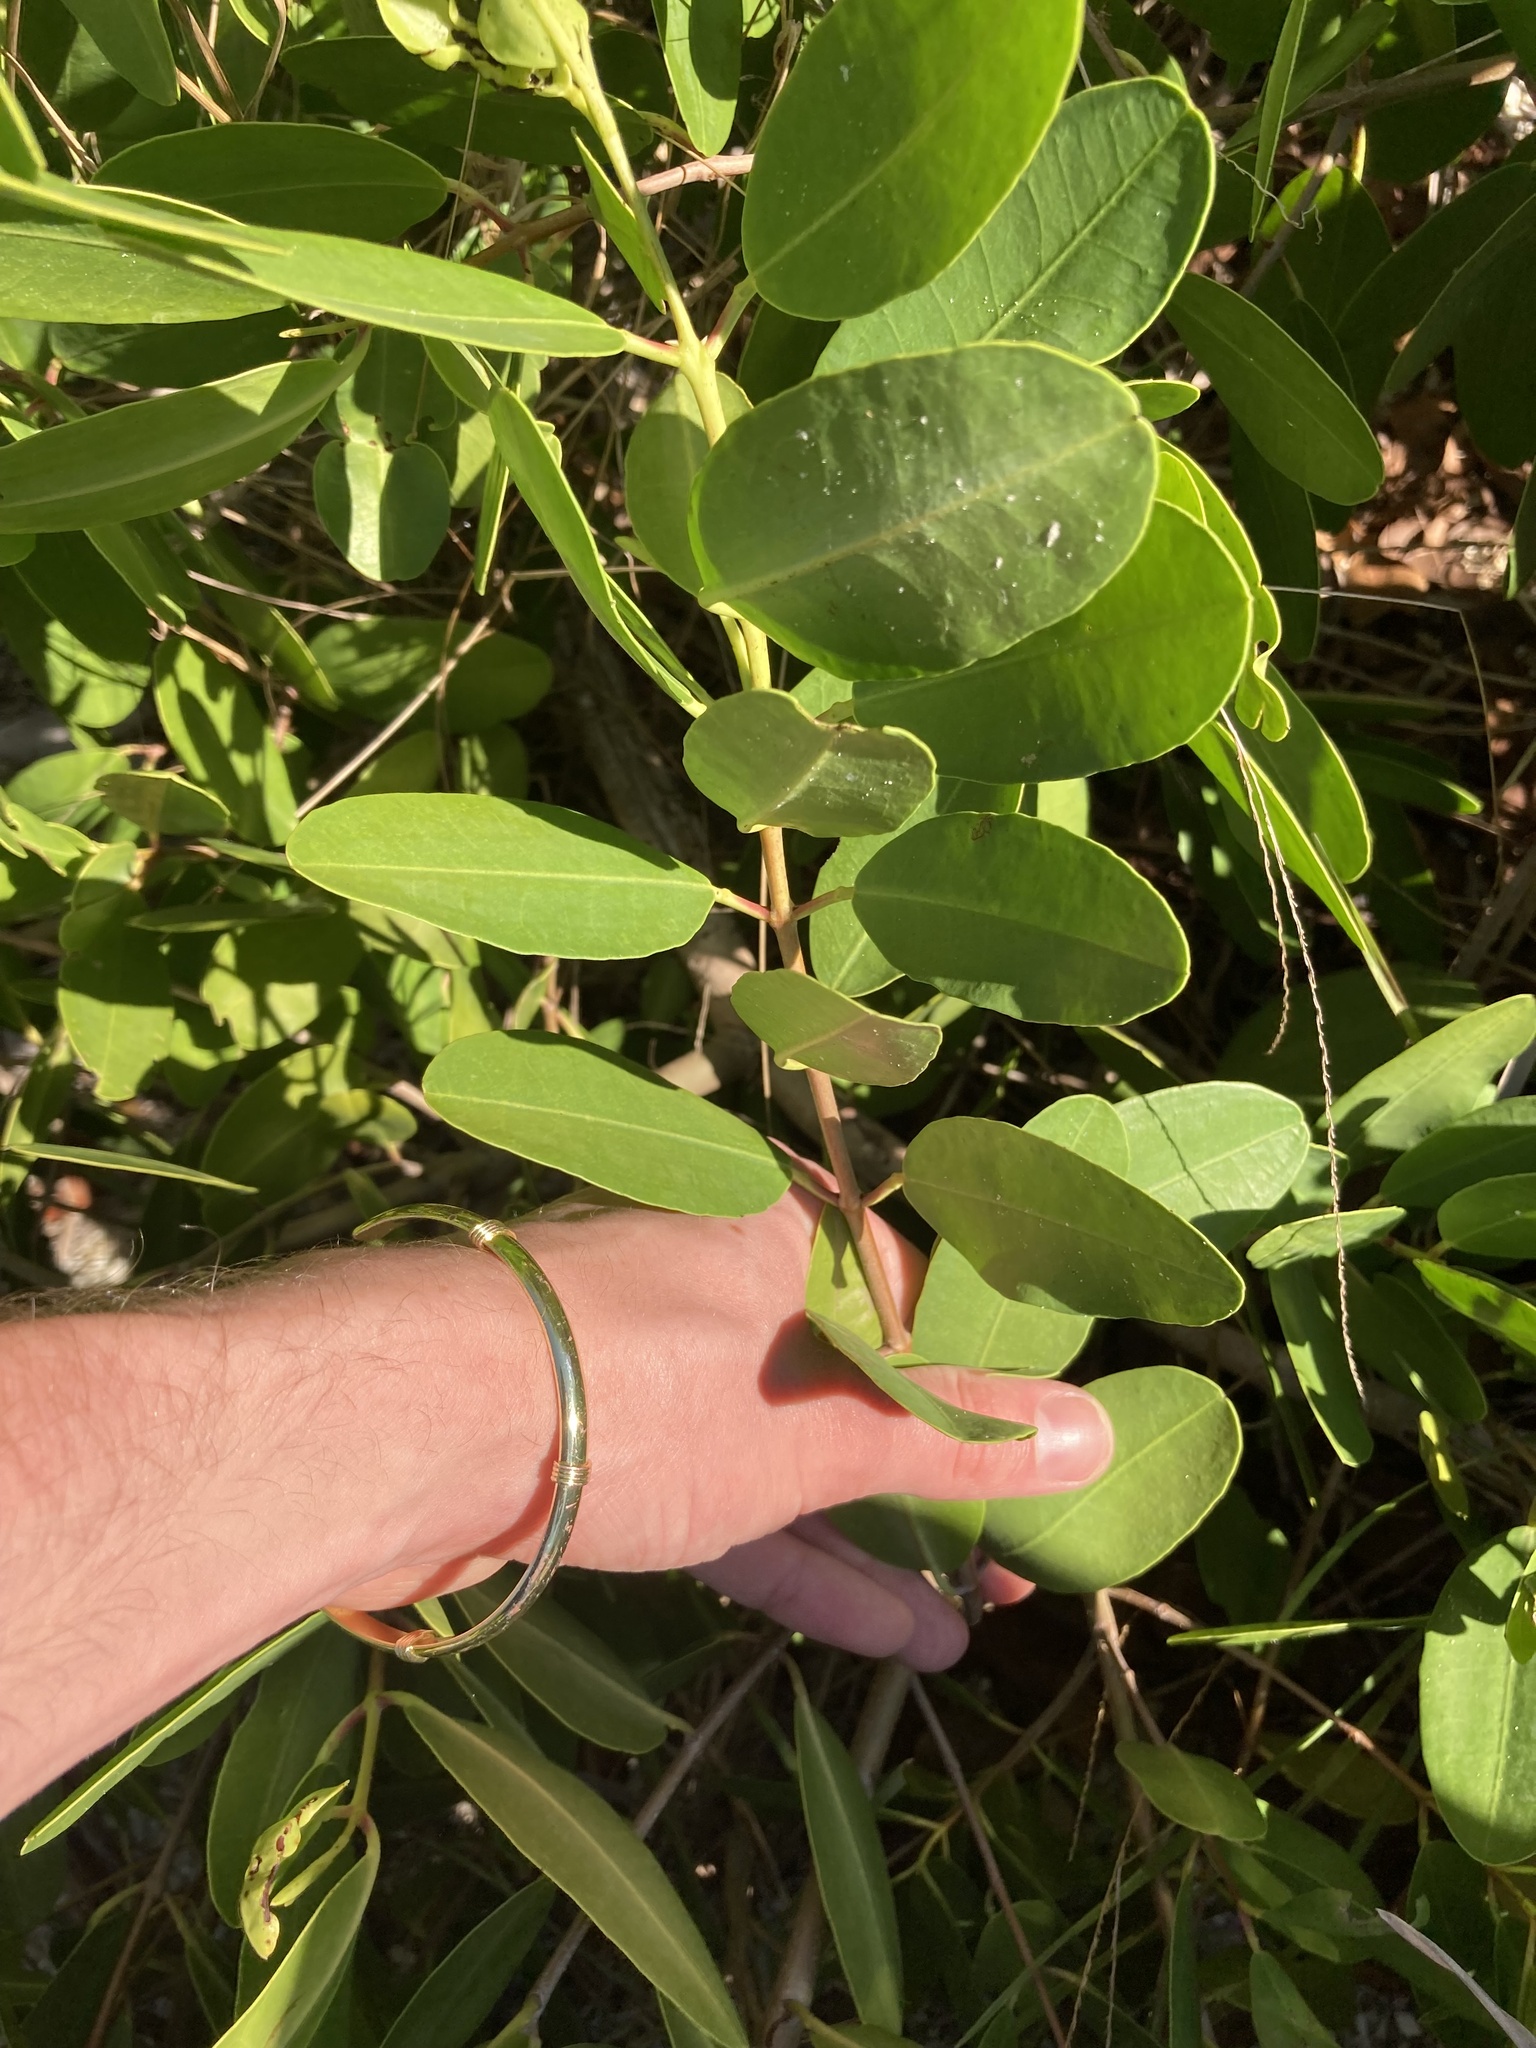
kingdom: Plantae
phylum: Tracheophyta
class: Magnoliopsida
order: Myrtales
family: Combretaceae
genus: Laguncularia
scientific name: Laguncularia racemosa
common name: White mangrove
